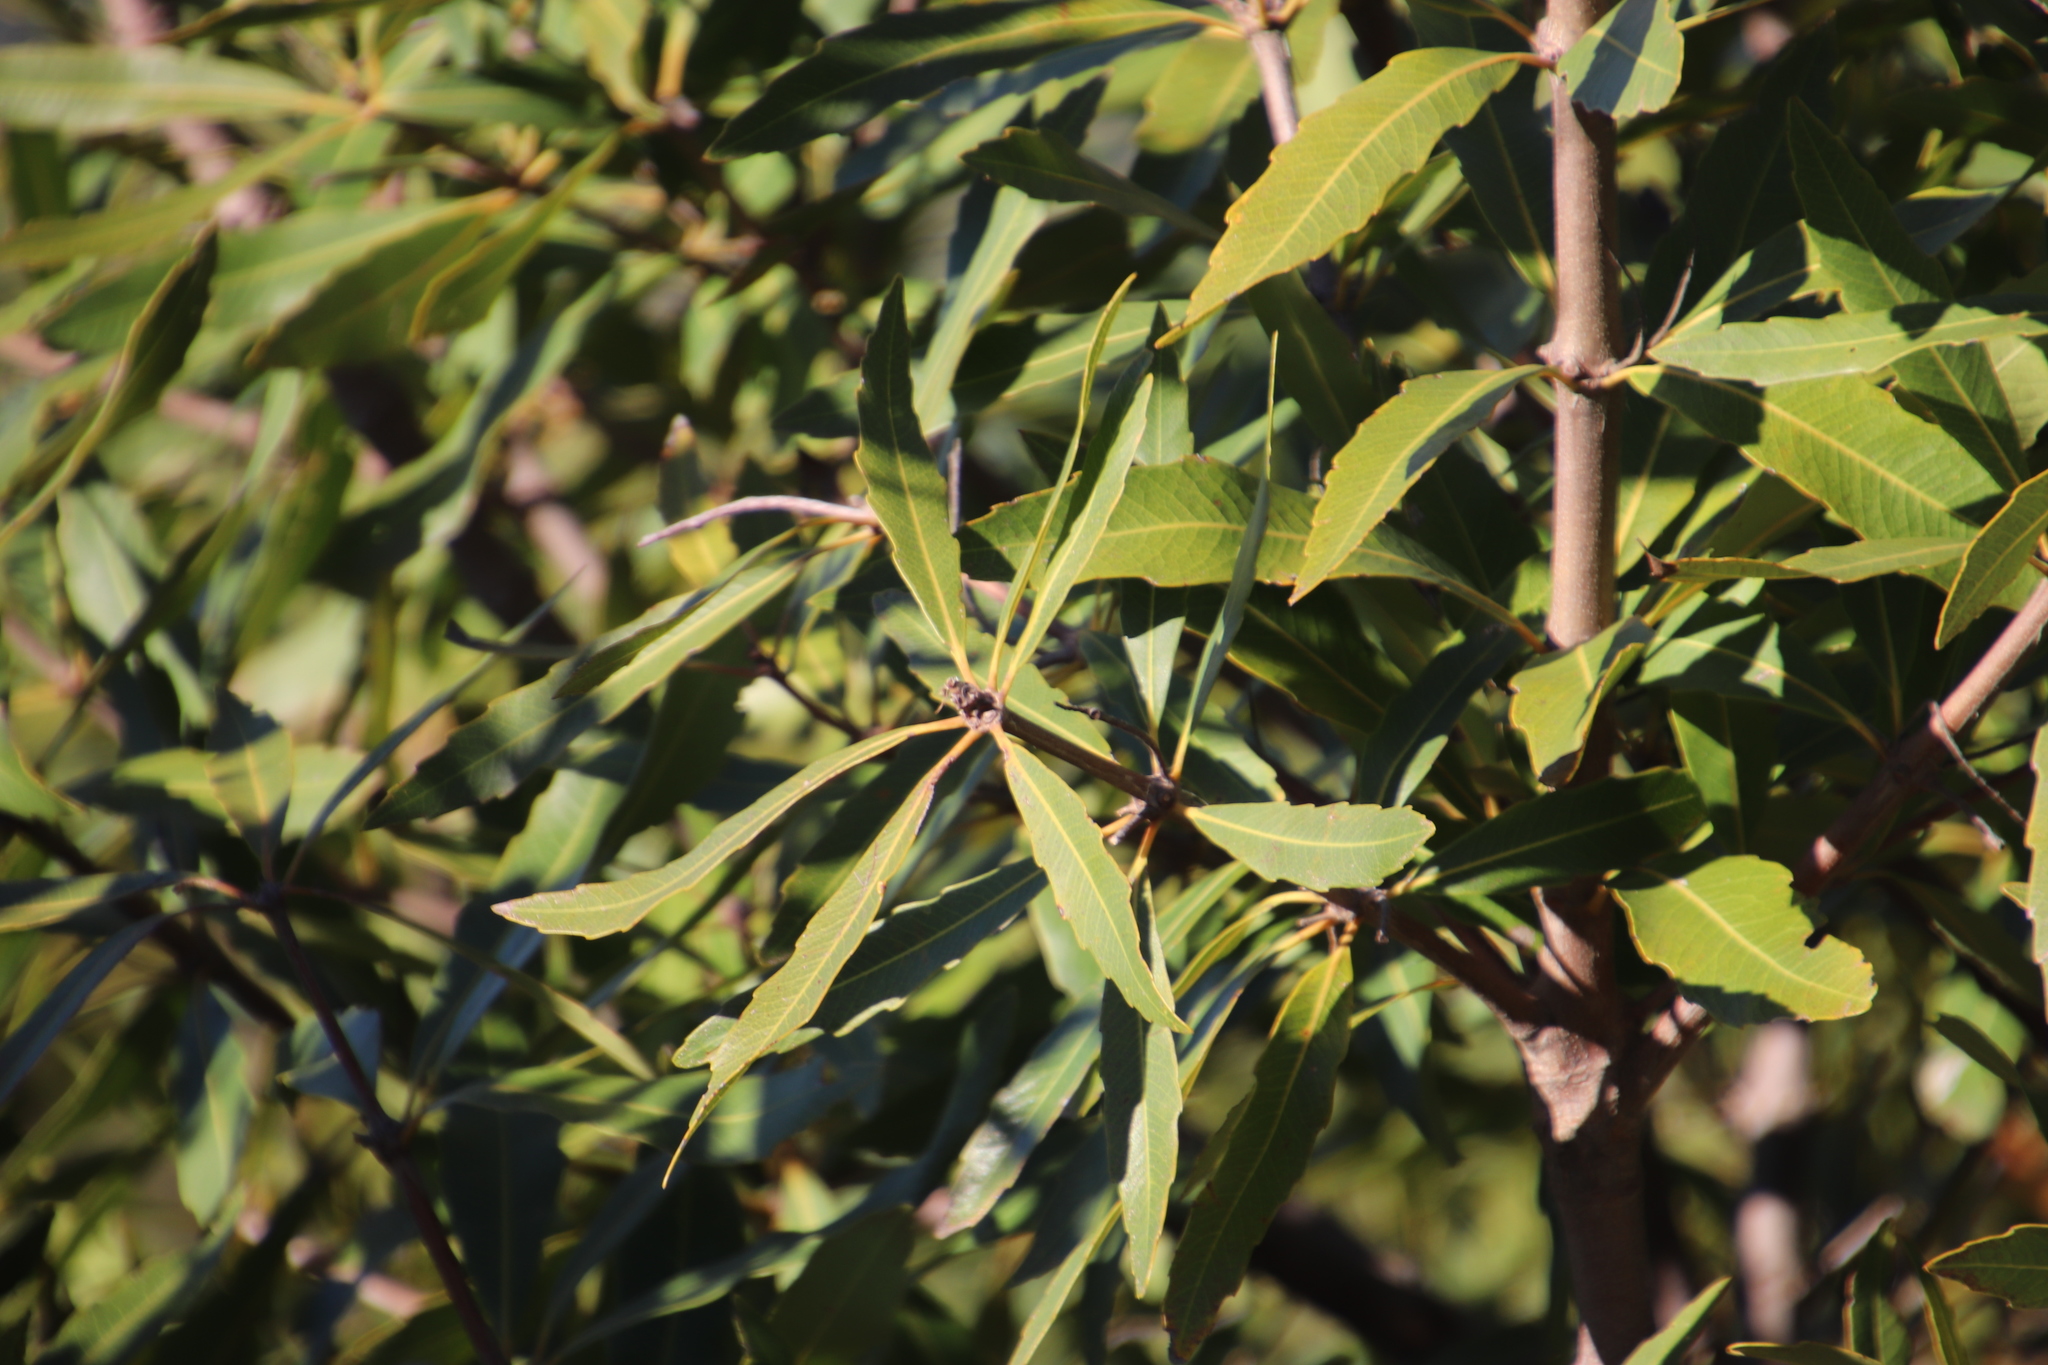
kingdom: Plantae
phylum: Tracheophyta
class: Magnoliopsida
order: Proteales
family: Proteaceae
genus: Brabejum
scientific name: Brabejum stellatifolium
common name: Wild almond
